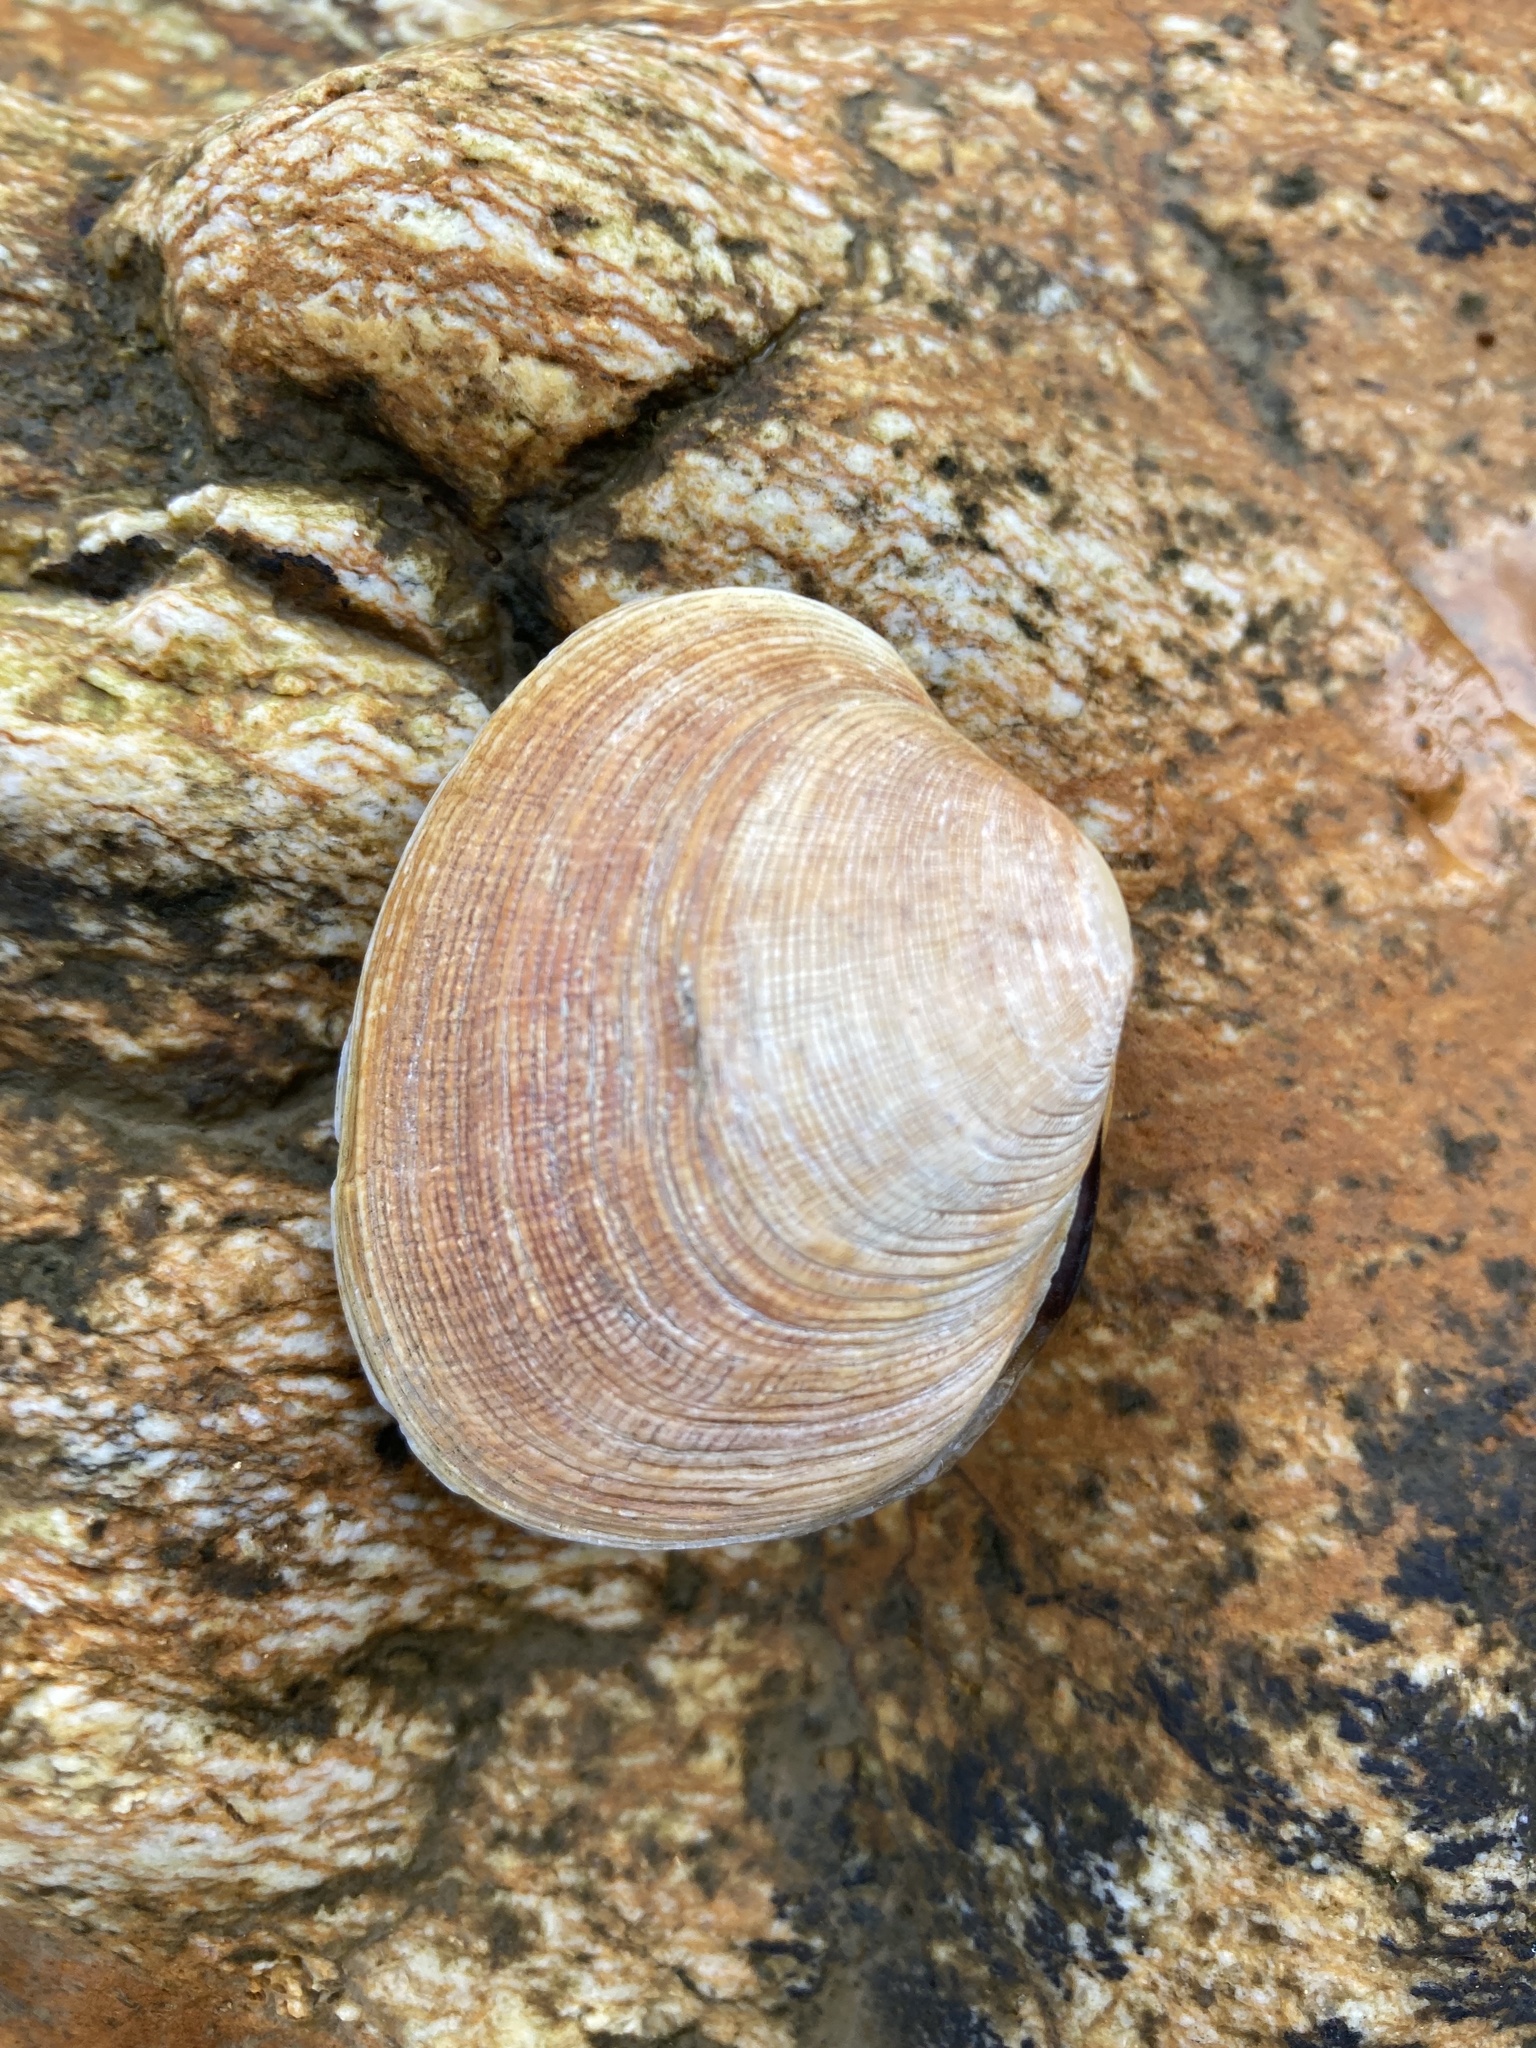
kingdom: Animalia
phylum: Mollusca
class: Bivalvia
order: Venerida
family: Veneridae
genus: Venerupis
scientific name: Venerupis largillierti
